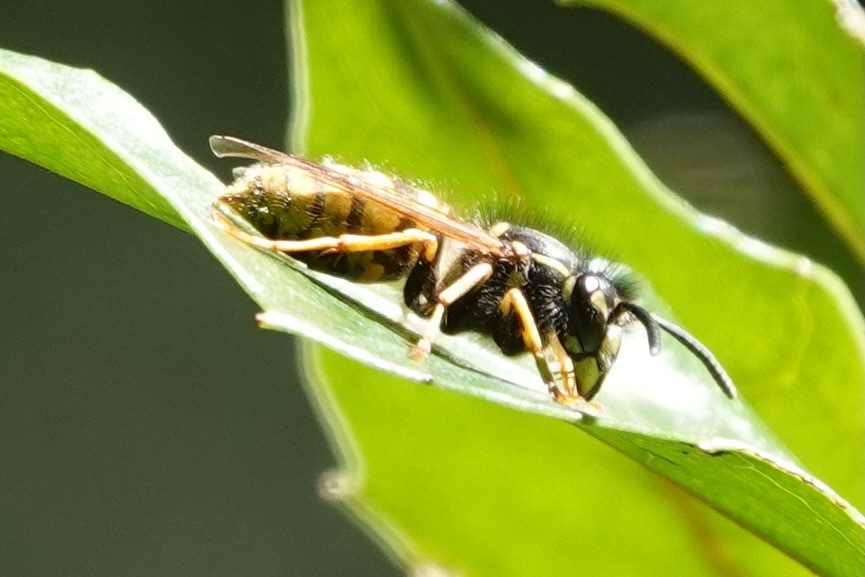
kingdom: Animalia
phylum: Arthropoda
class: Insecta
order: Hymenoptera
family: Vespidae
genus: Vespula
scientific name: Vespula vulgaris
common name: Common wasp
